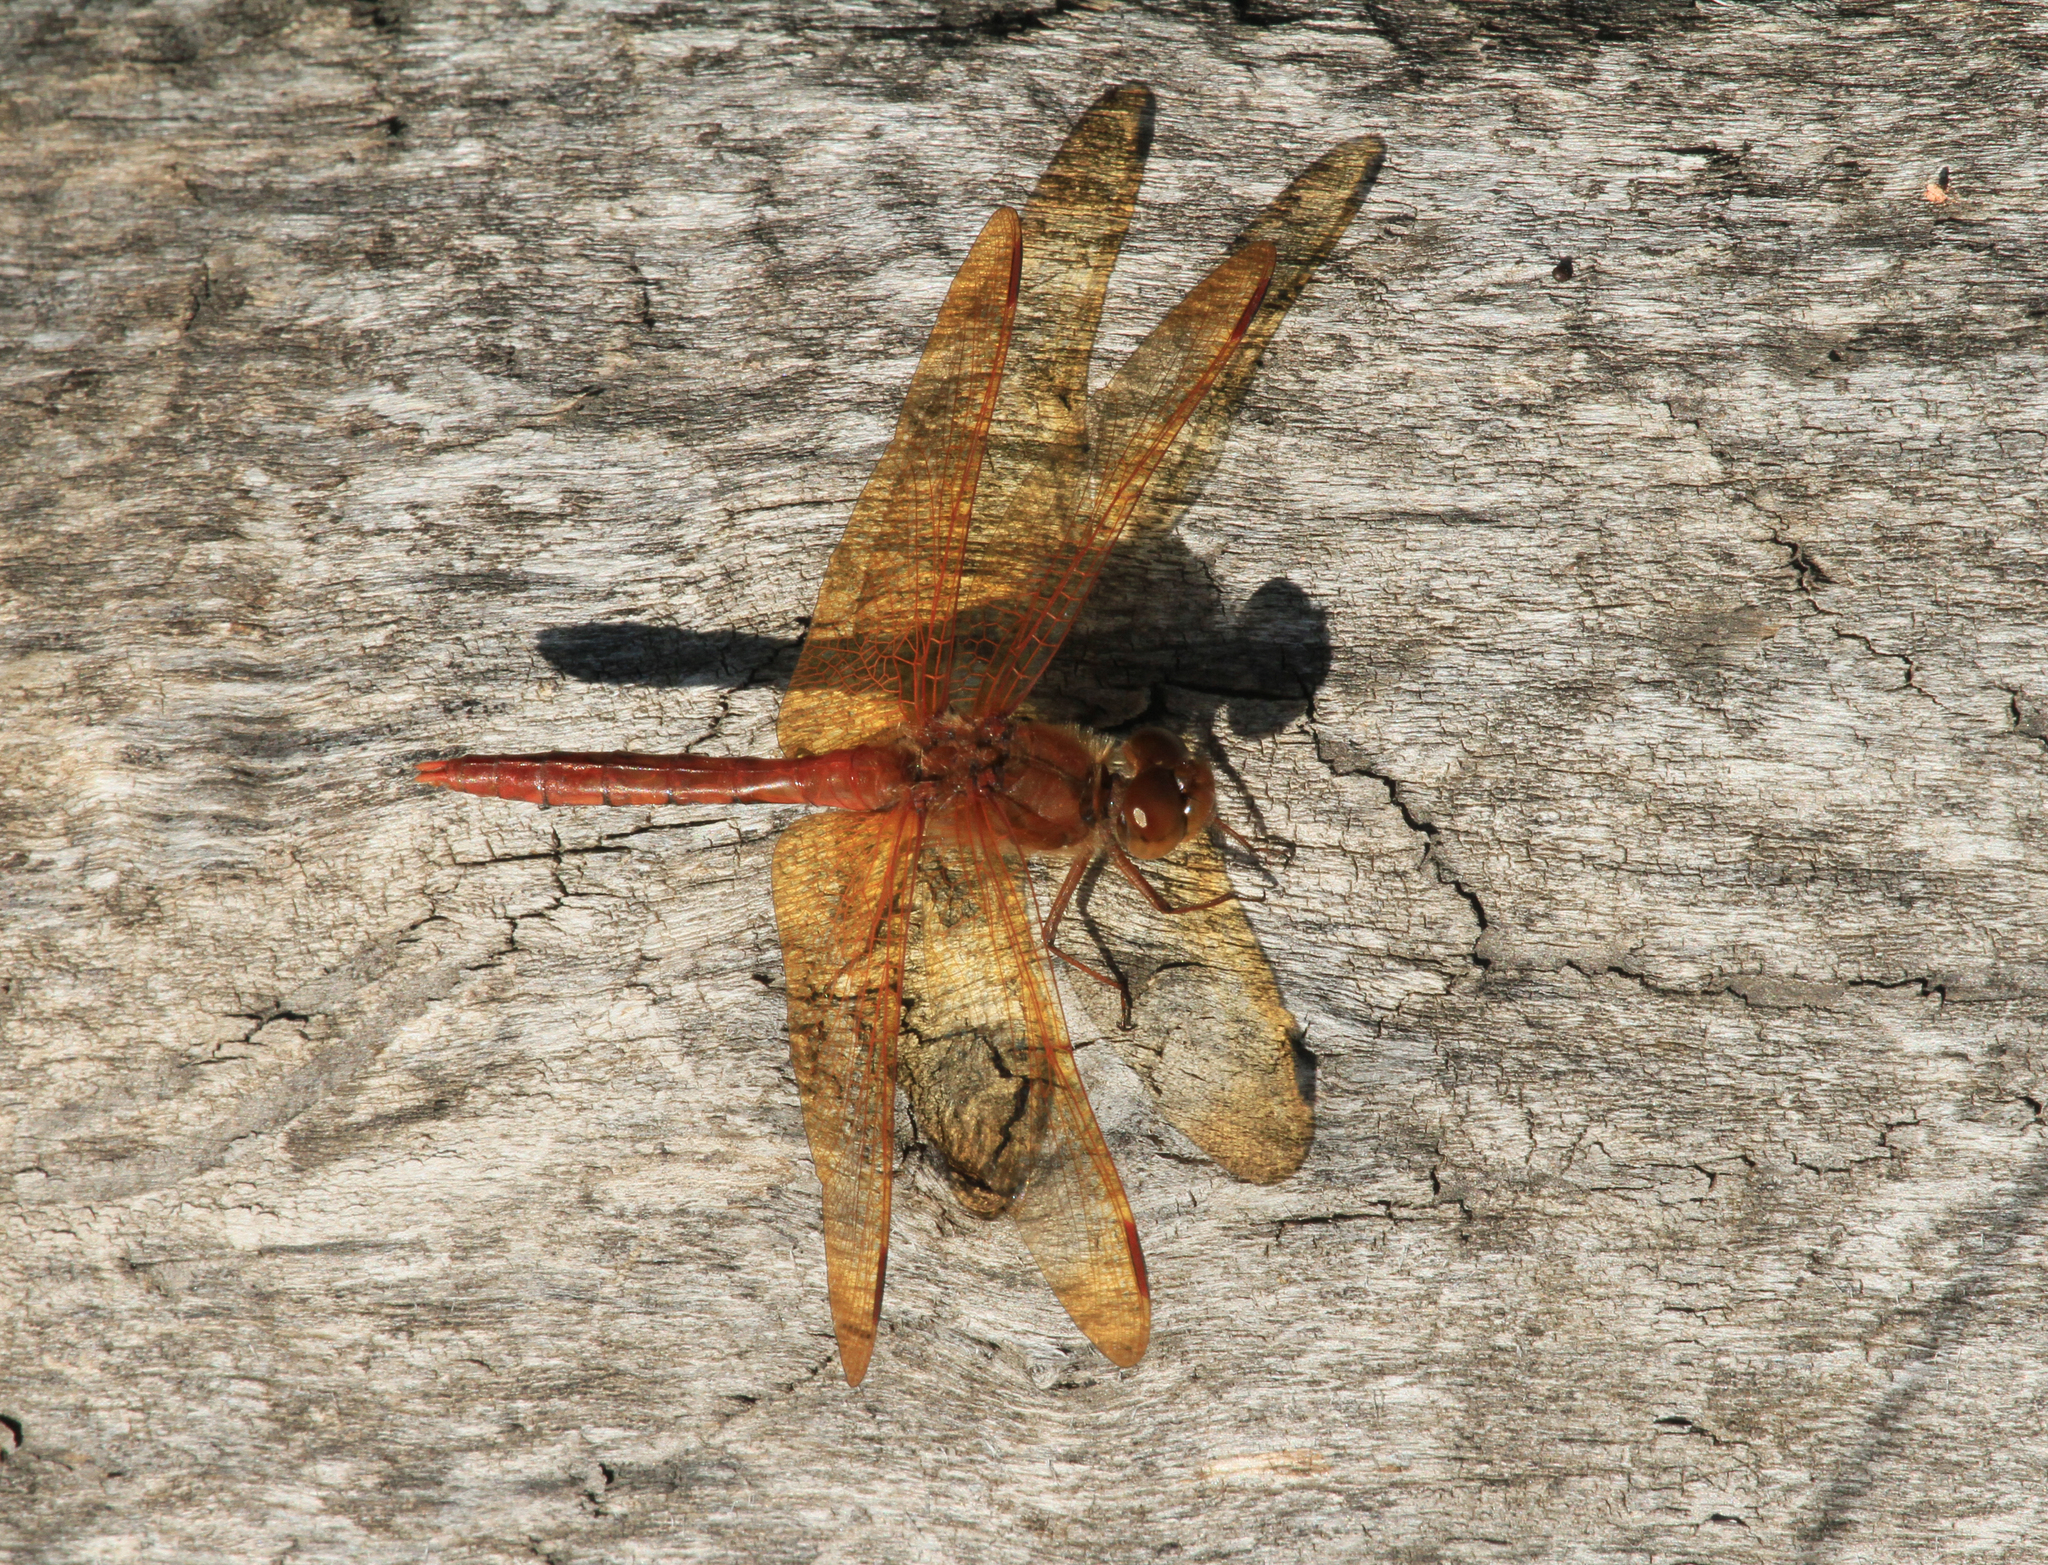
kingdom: Animalia
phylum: Arthropoda
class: Insecta
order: Odonata
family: Libellulidae
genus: Sympetrum
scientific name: Sympetrum croceolum
